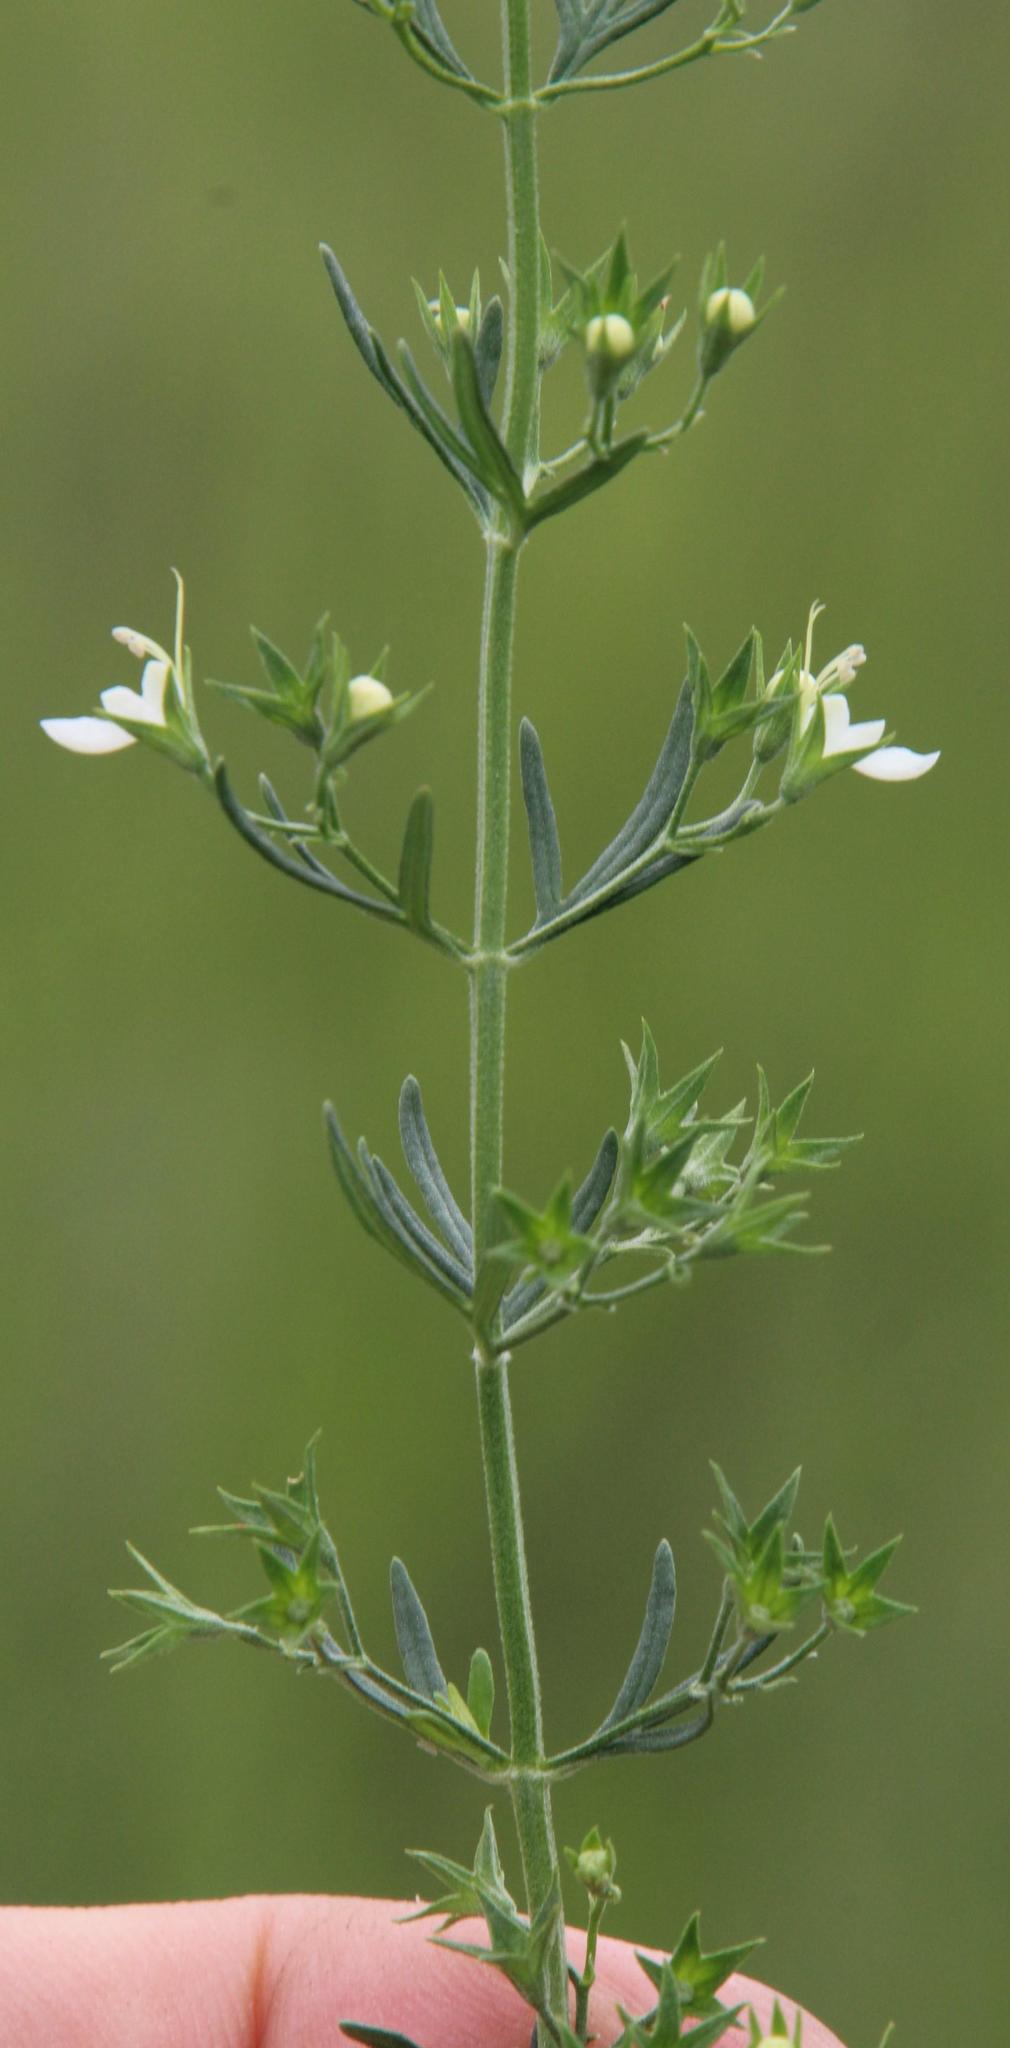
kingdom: Plantae
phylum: Tracheophyta
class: Magnoliopsida
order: Lamiales
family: Lamiaceae
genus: Teucrium
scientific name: Teucrium trifidum
